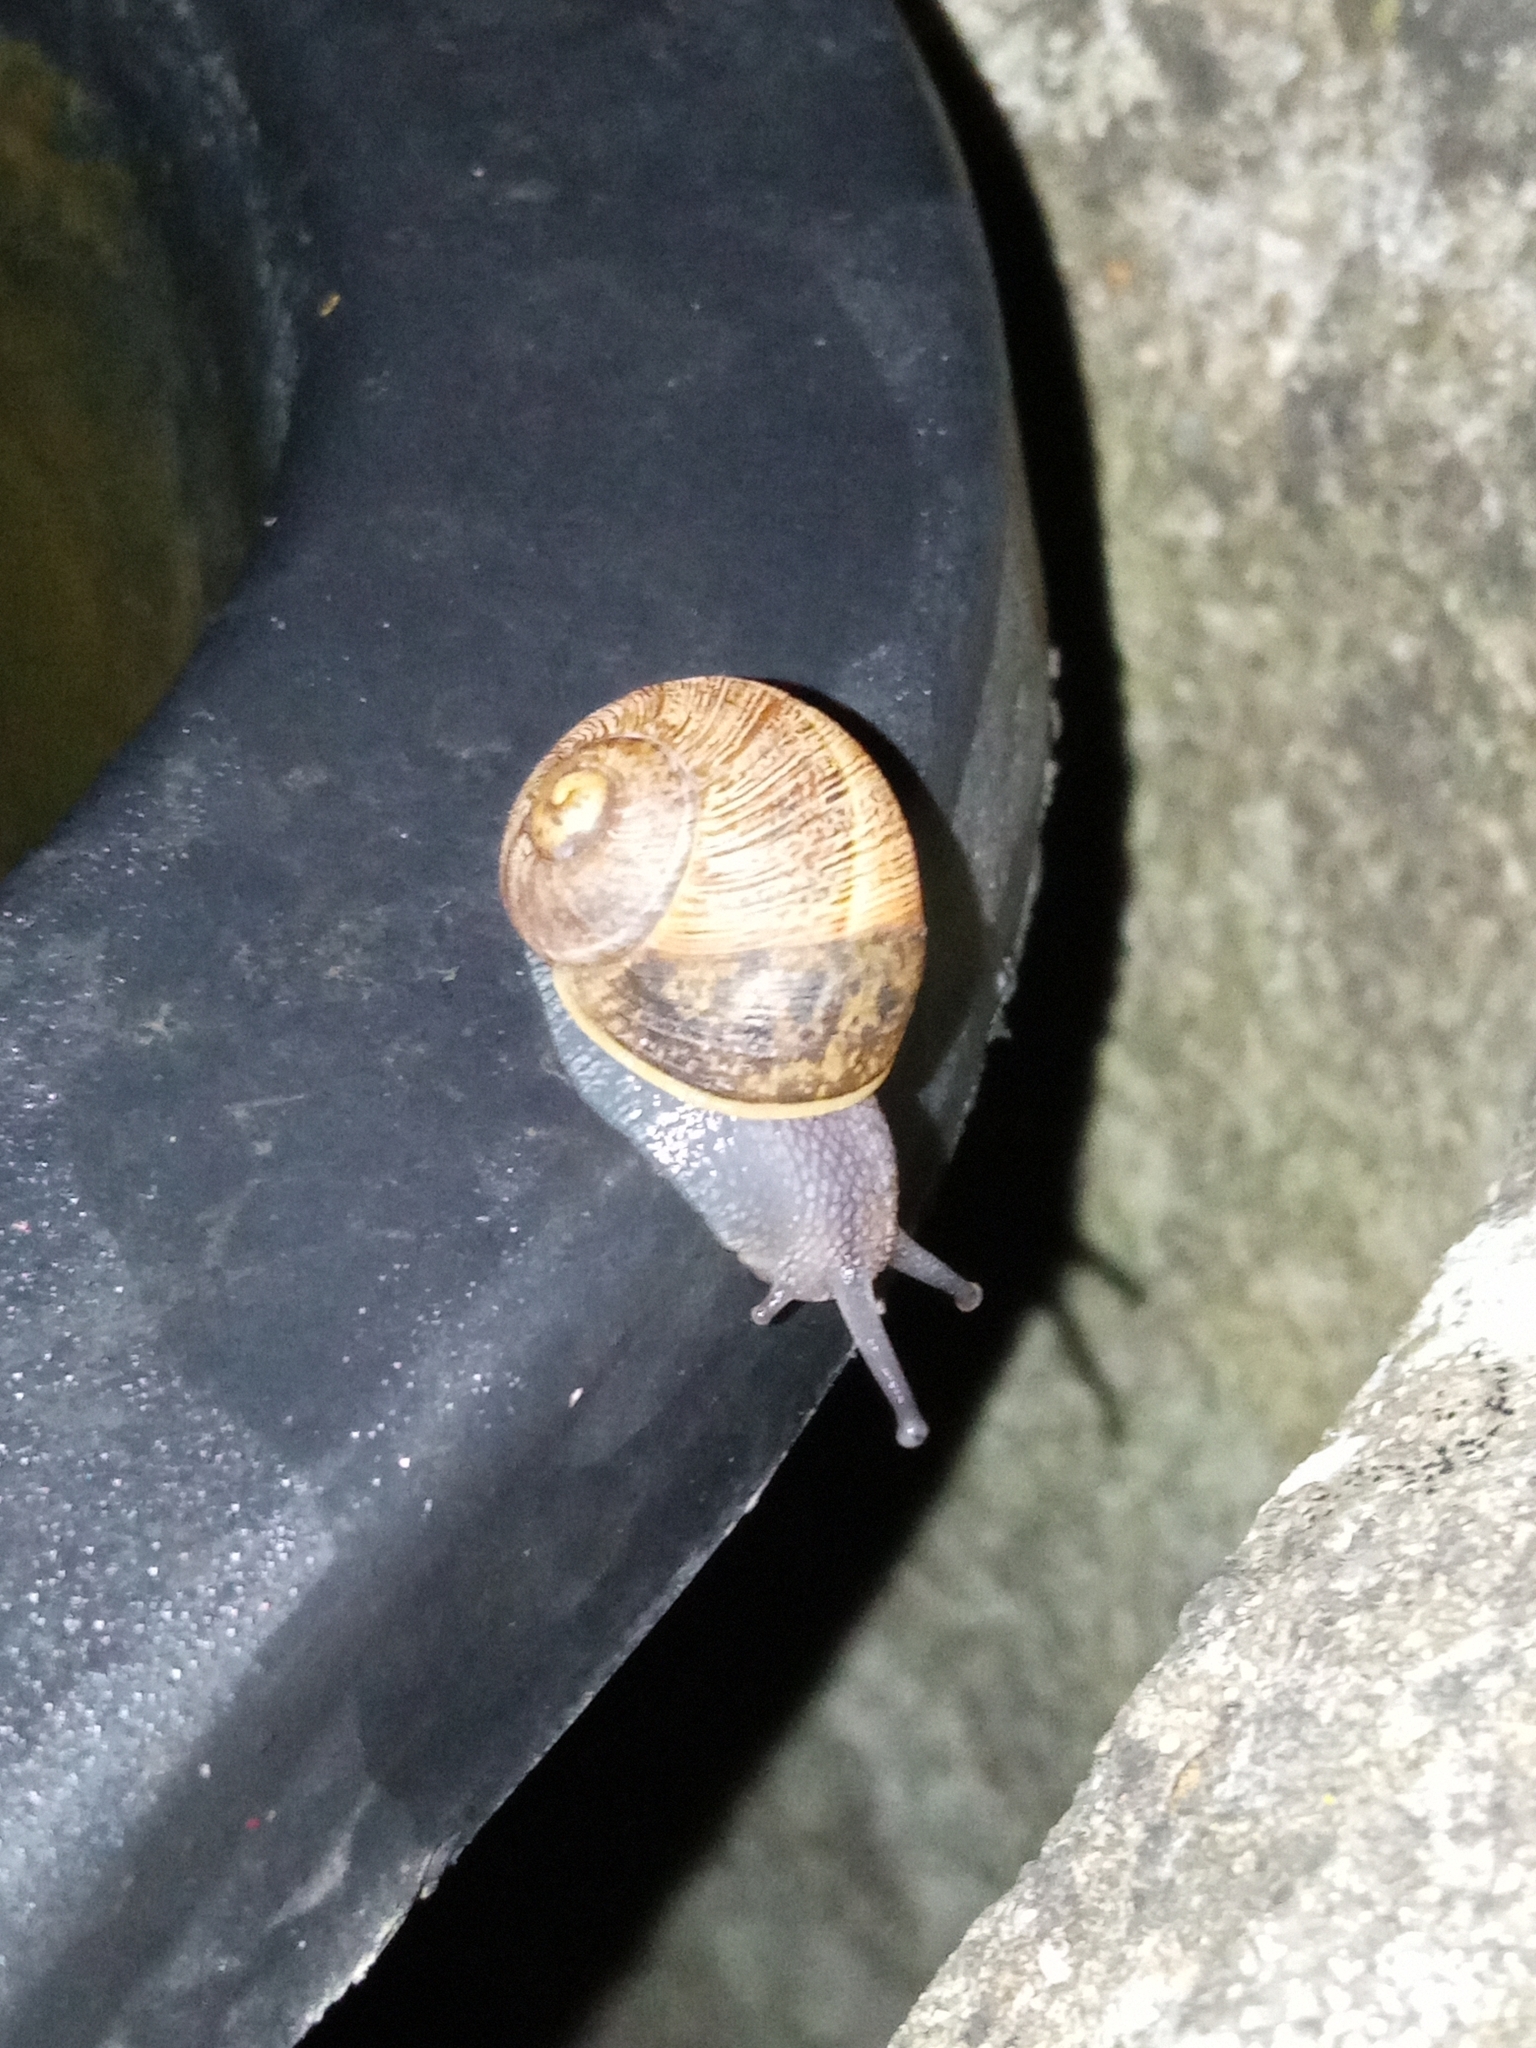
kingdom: Animalia
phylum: Mollusca
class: Gastropoda
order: Stylommatophora
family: Helicidae
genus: Cornu
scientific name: Cornu aspersum
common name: Brown garden snail
